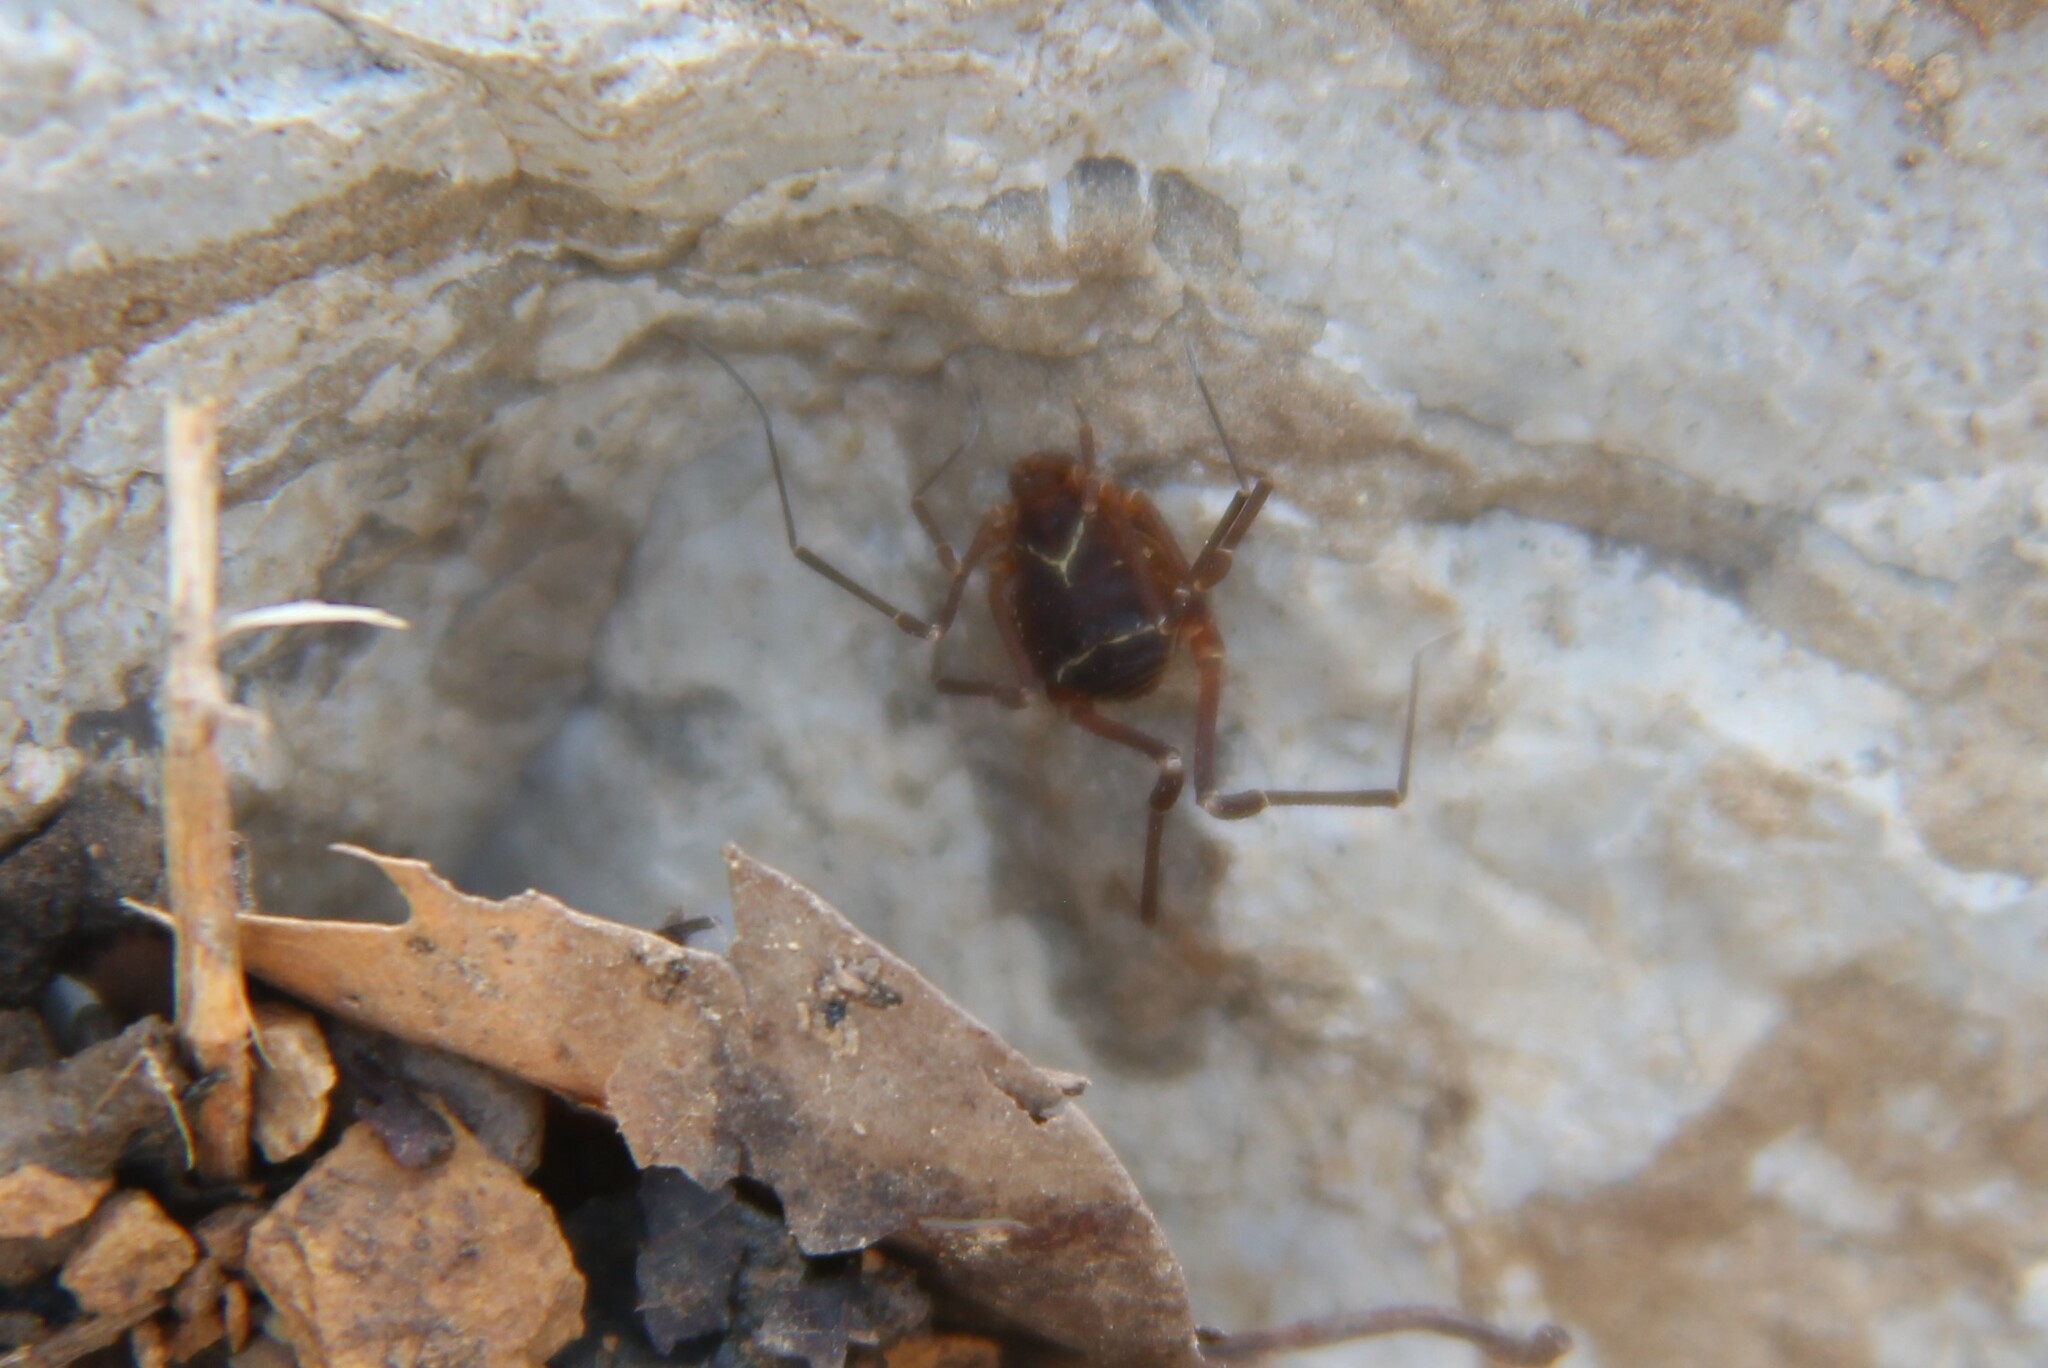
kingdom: Animalia
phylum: Arthropoda
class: Arachnida
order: Opiliones
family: Cosmetidae
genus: Libitioides
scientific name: Libitioides sayi
